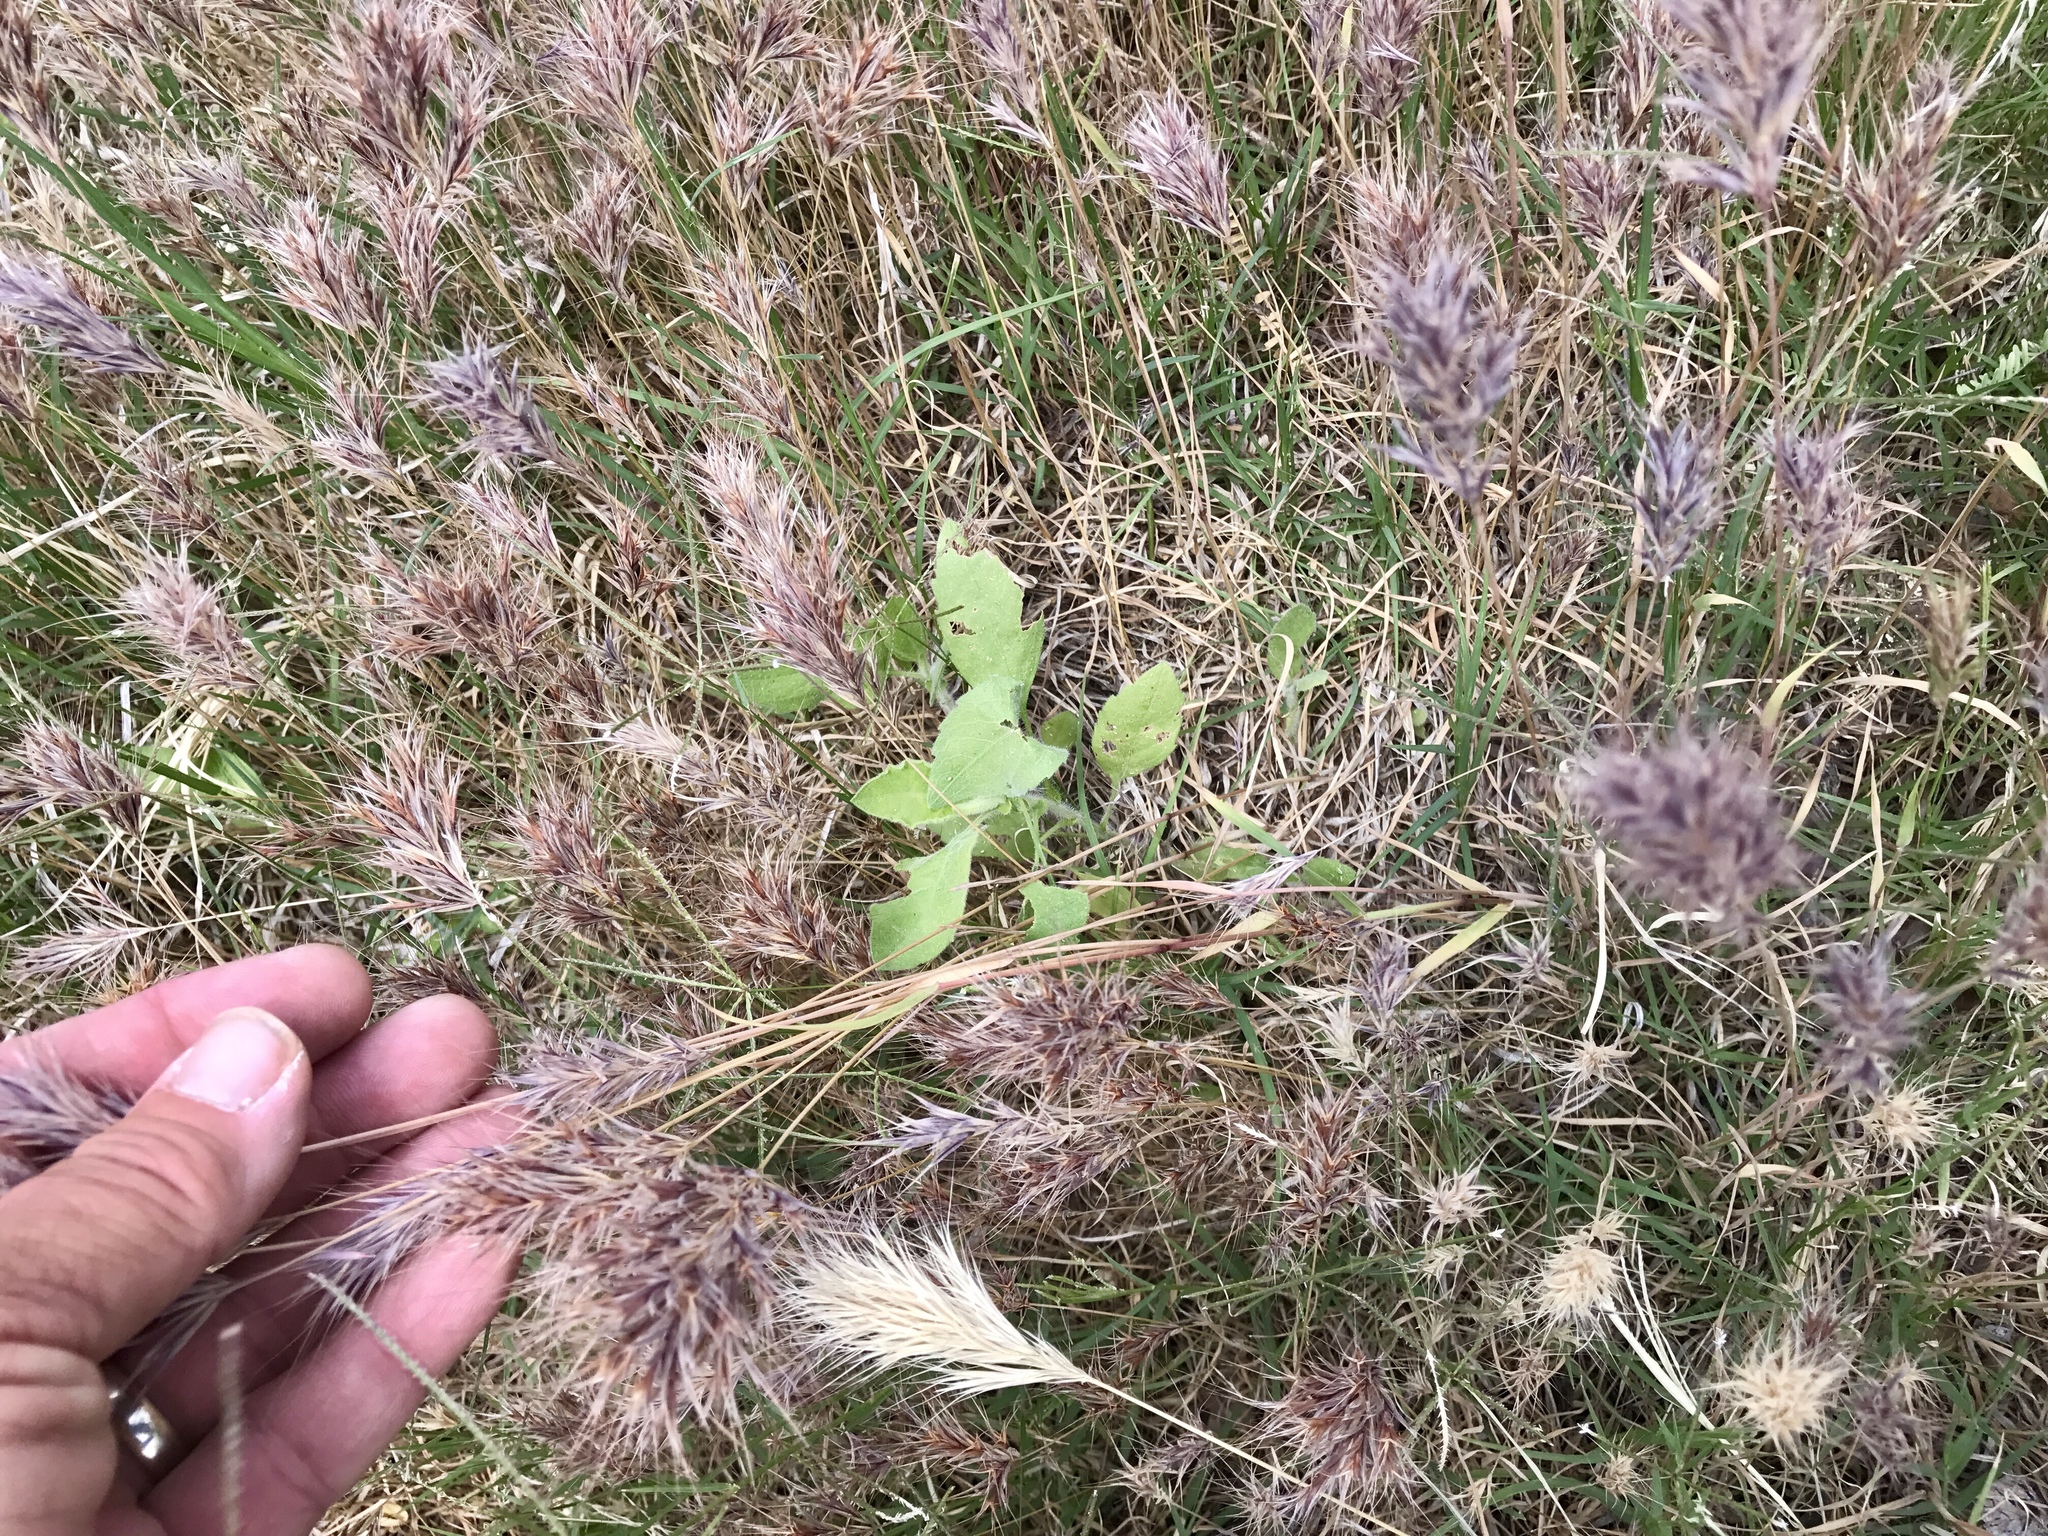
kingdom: Plantae
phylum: Tracheophyta
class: Liliopsida
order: Poales
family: Poaceae
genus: Bromus
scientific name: Bromus rubens
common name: Red brome
